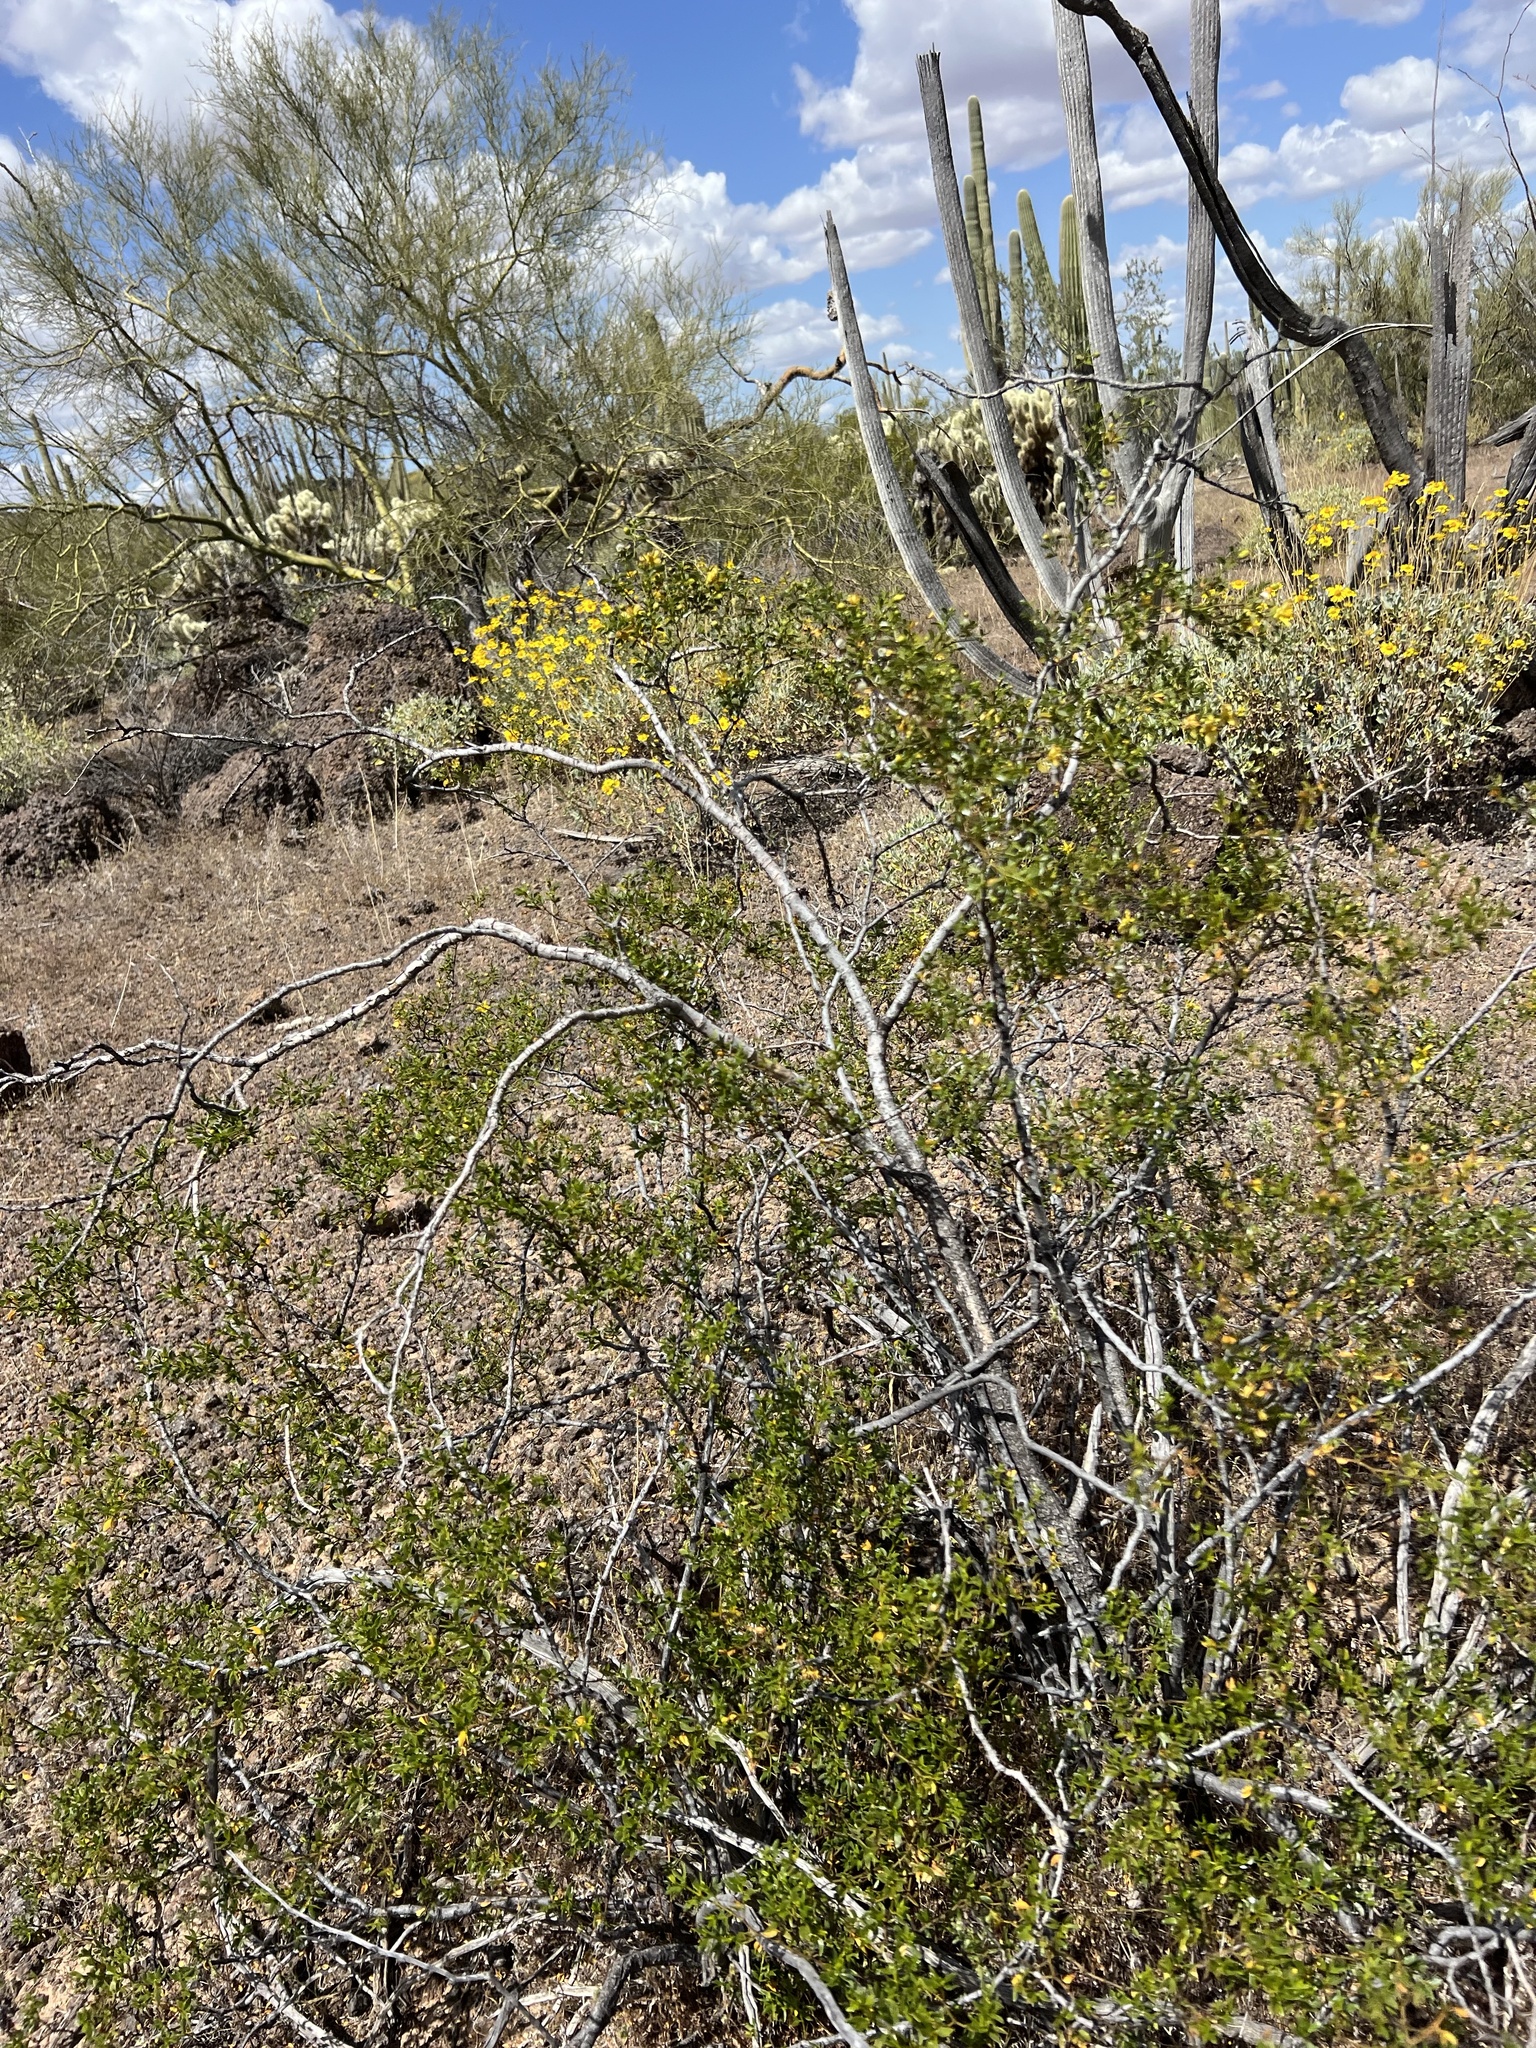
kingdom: Plantae
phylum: Tracheophyta
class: Magnoliopsida
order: Zygophyllales
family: Zygophyllaceae
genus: Larrea
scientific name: Larrea tridentata
